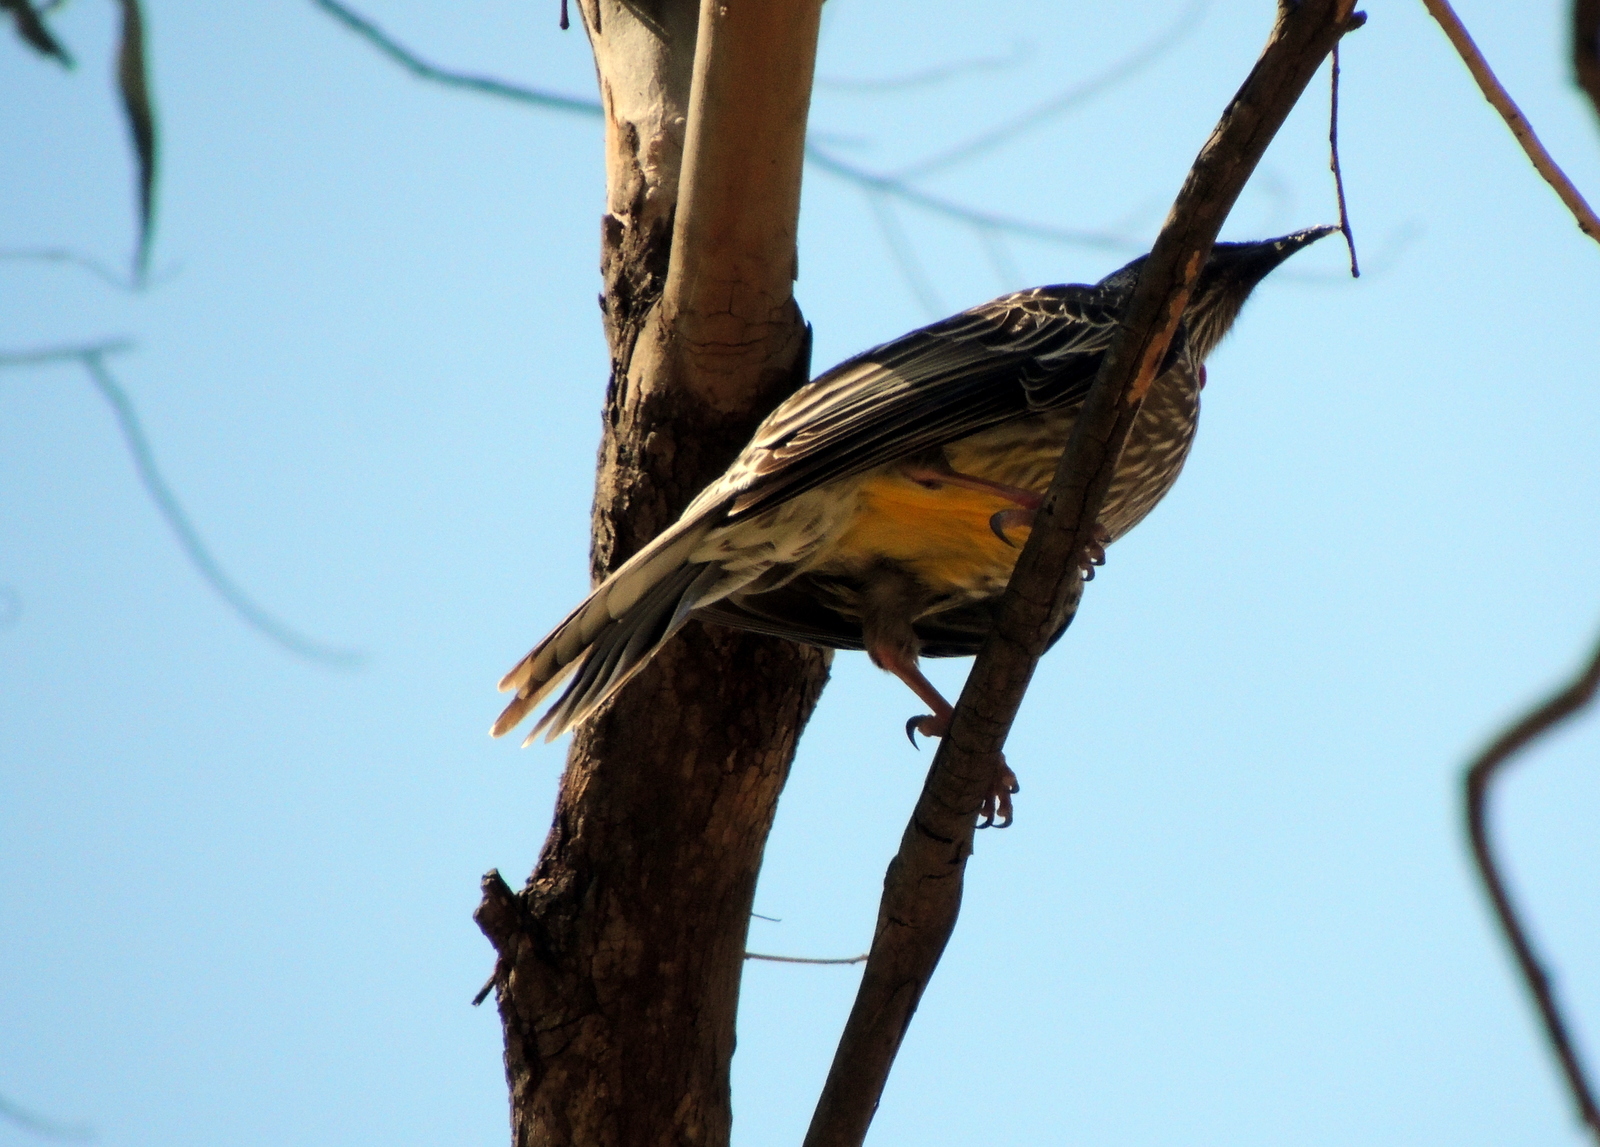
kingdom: Animalia
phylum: Chordata
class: Aves
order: Passeriformes
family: Meliphagidae
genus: Anthochaera
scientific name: Anthochaera carunculata
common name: Red wattlebird
